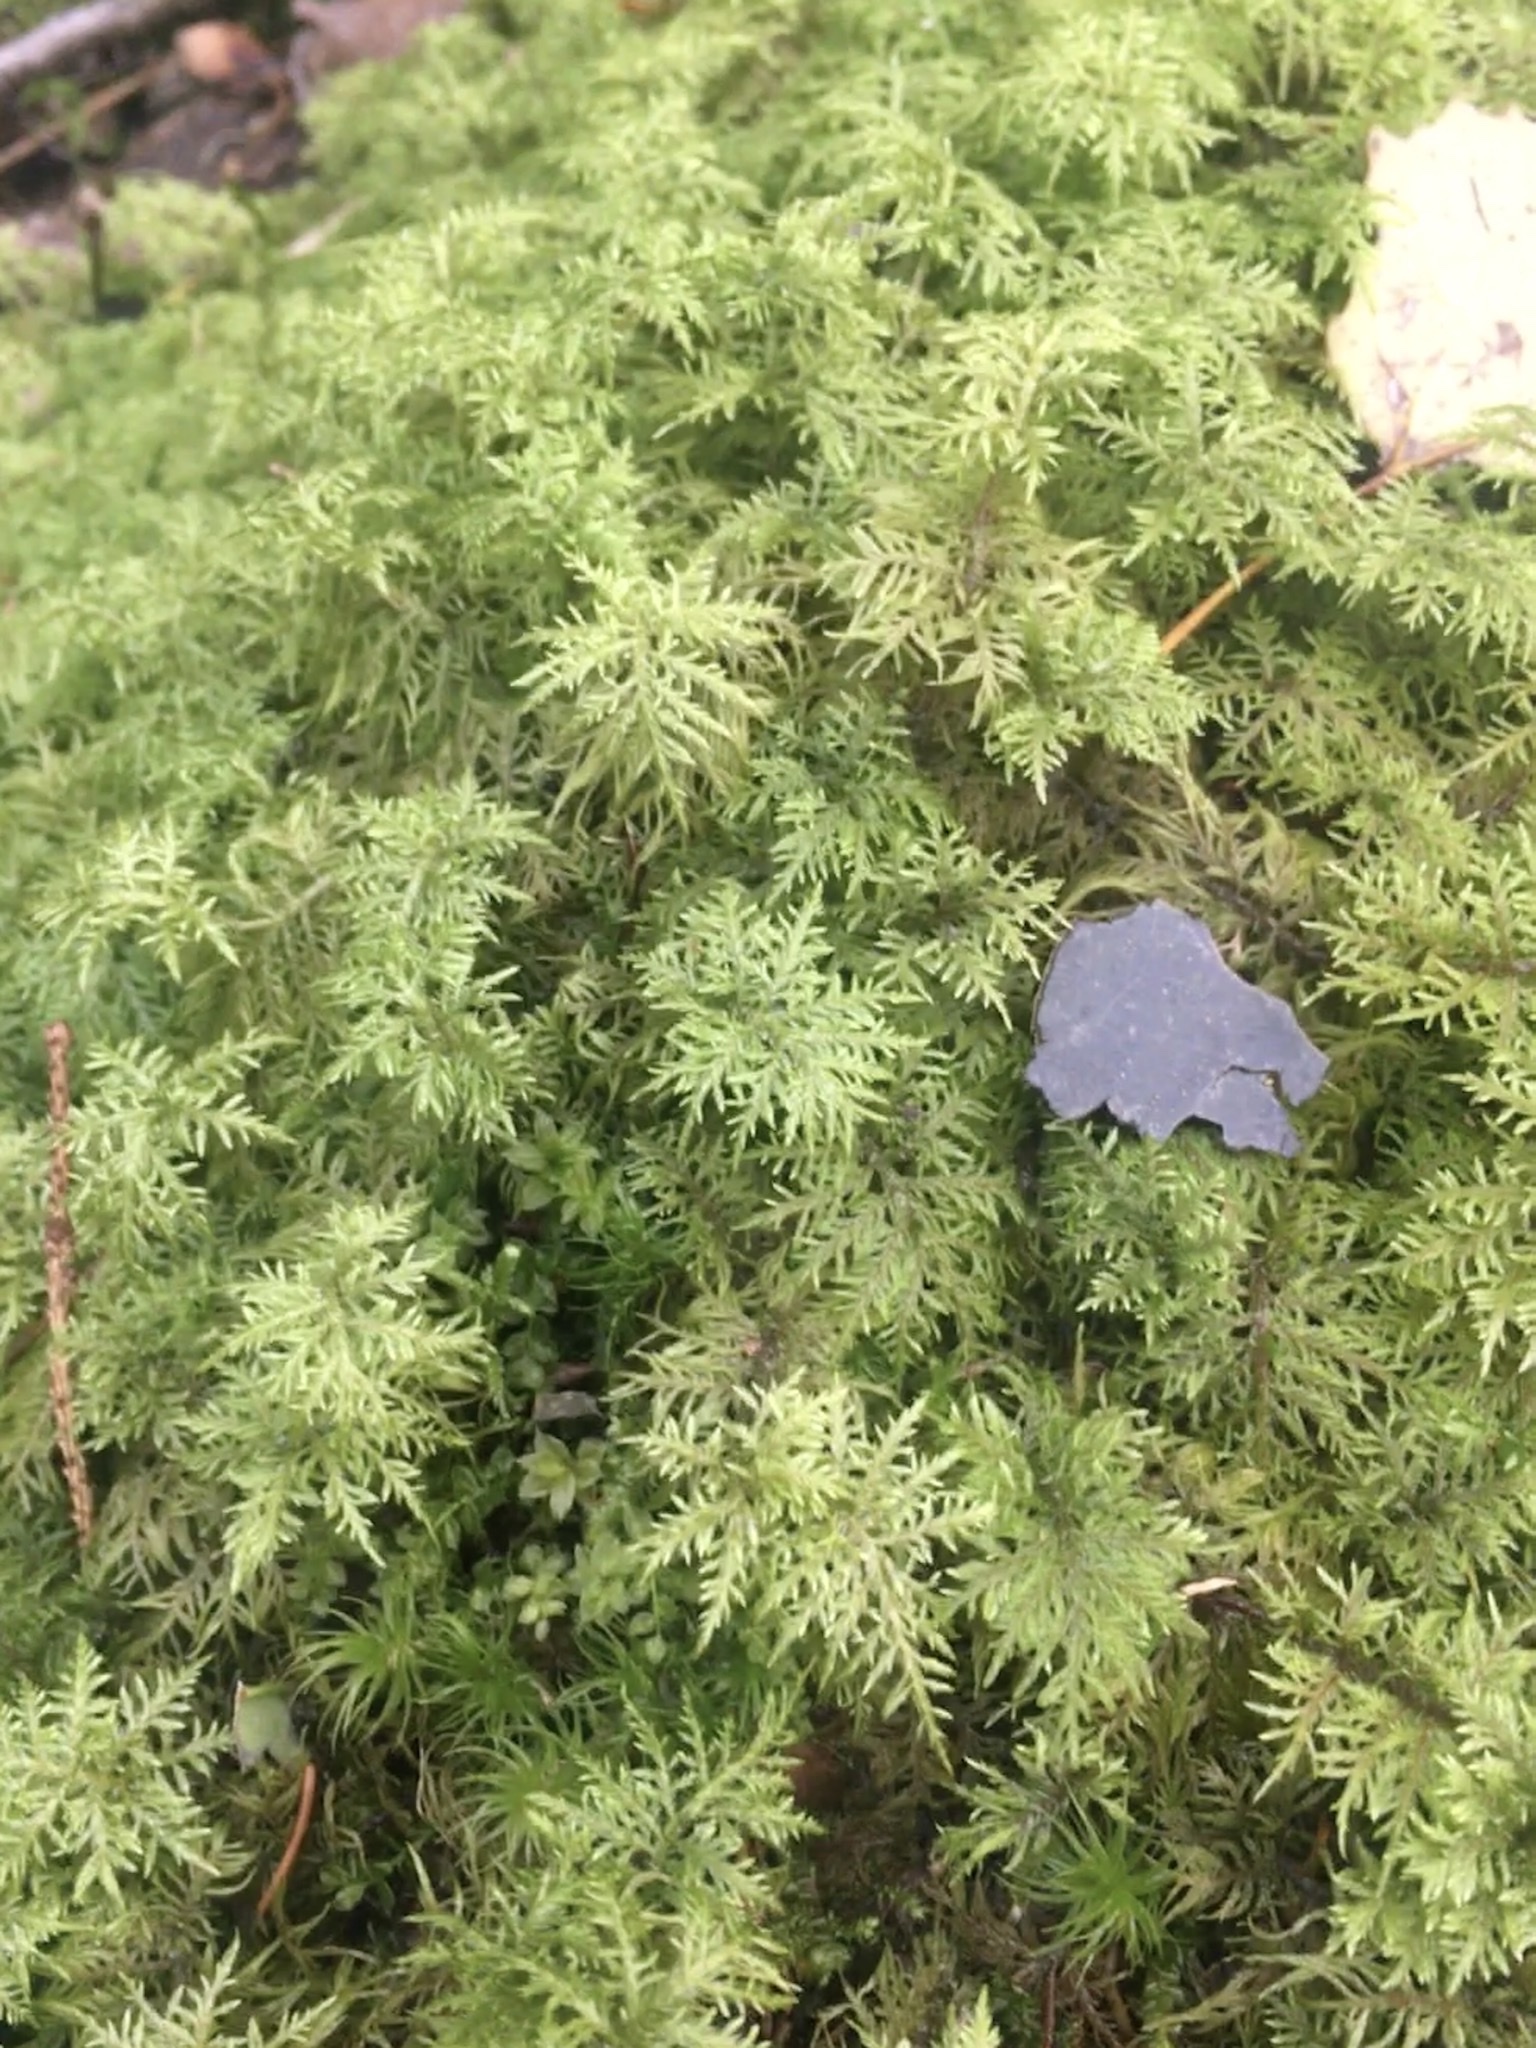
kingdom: Plantae
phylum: Bryophyta
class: Bryopsida
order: Hypnales
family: Hylocomiaceae
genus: Hylocomium
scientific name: Hylocomium splendens
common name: Stairstep moss
